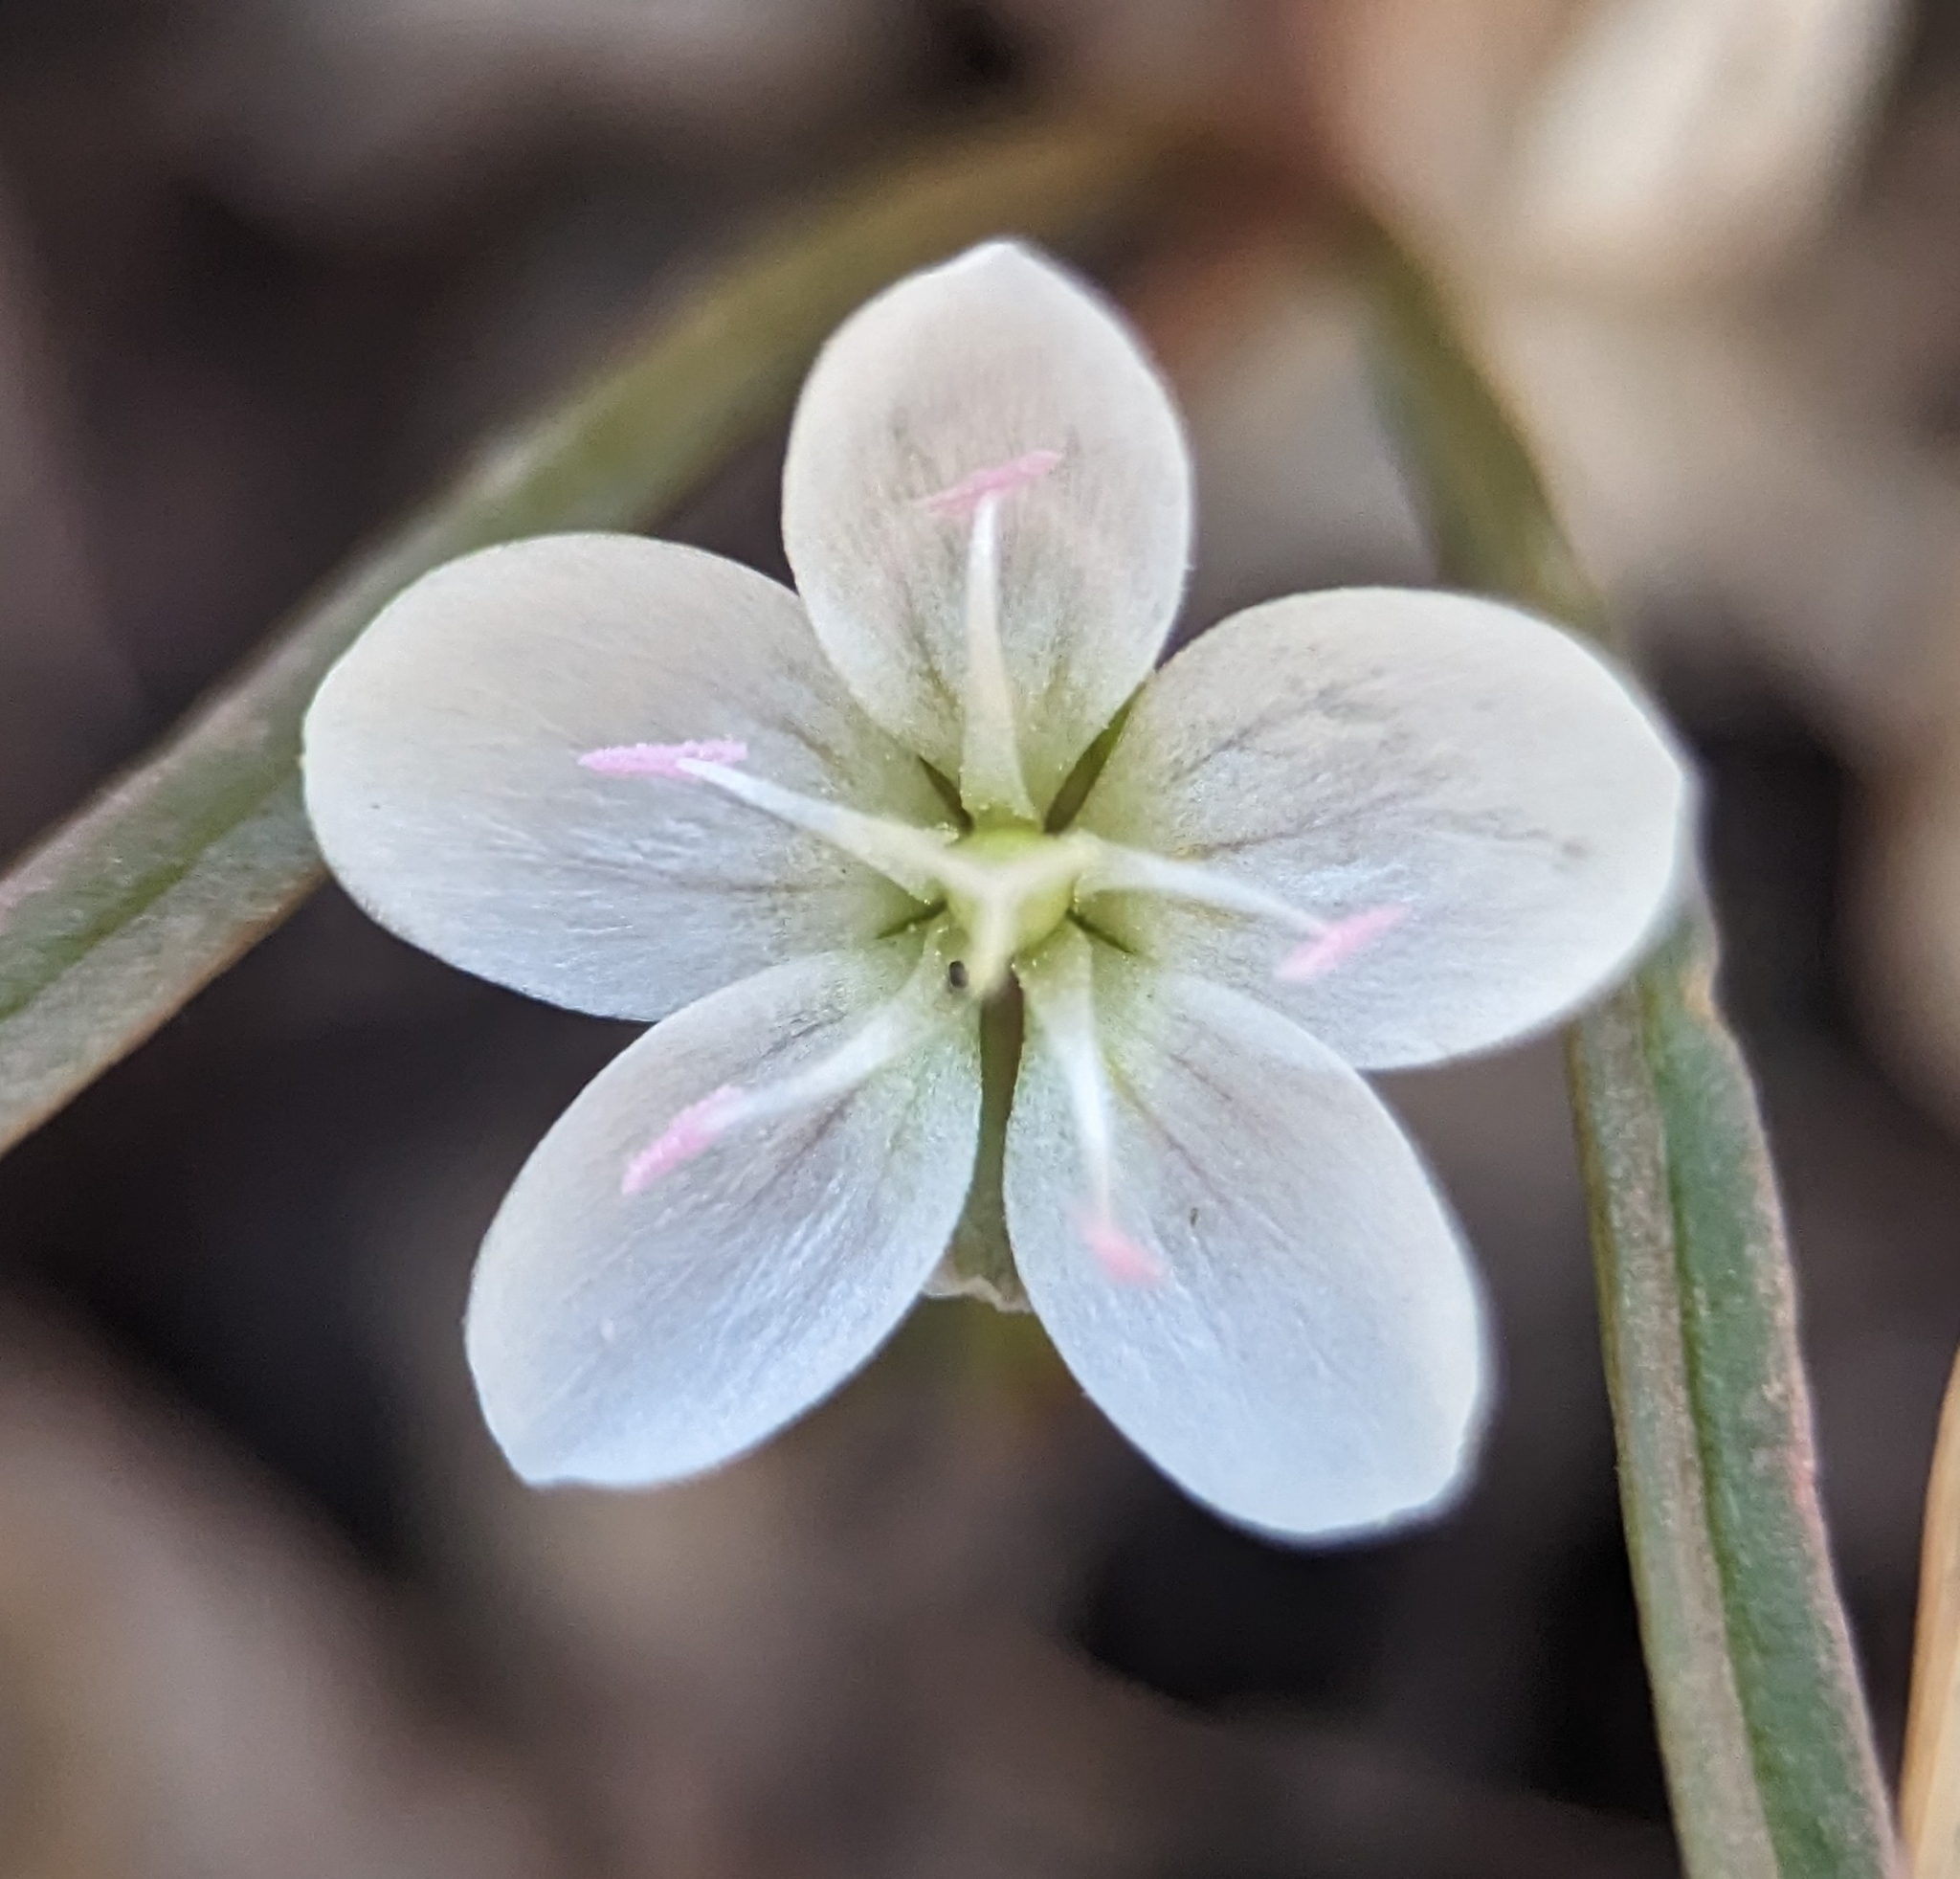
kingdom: Plantae
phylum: Tracheophyta
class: Magnoliopsida
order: Caryophyllales
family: Montiaceae
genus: Claytonia
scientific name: Claytonia virginica
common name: Virginia springbeauty
